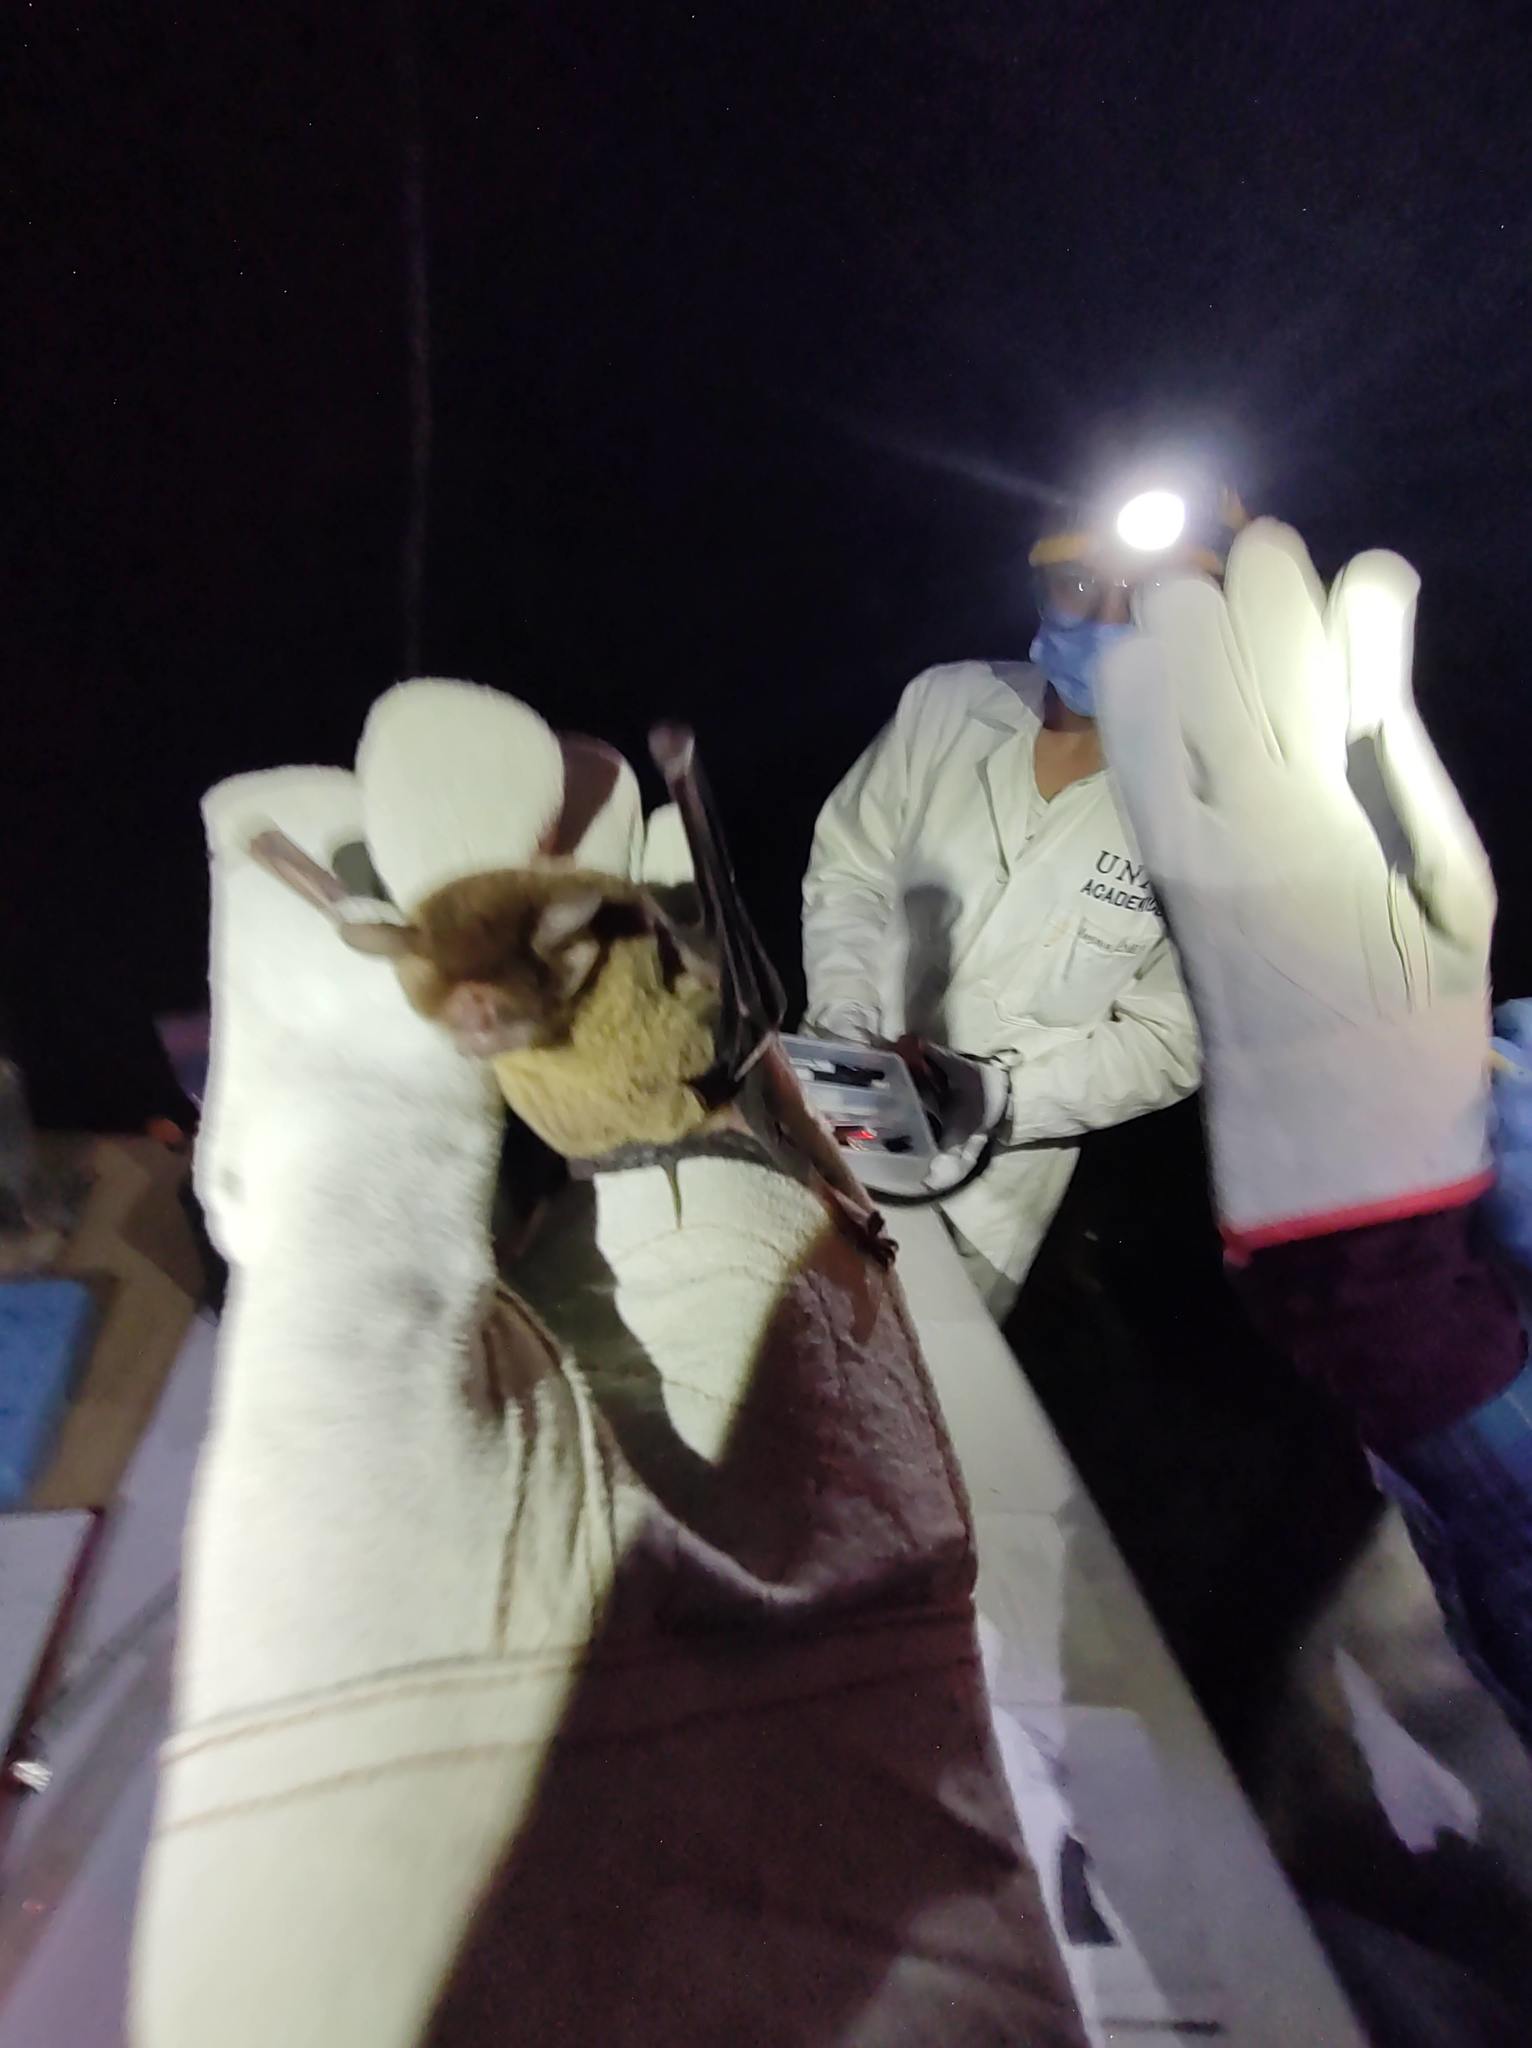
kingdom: Animalia
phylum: Chordata
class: Mammalia
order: Chiroptera
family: Mormoopidae
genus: Pteronotus
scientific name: Pteronotus mesoamericanus
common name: Mesoamerican common mustached bat
